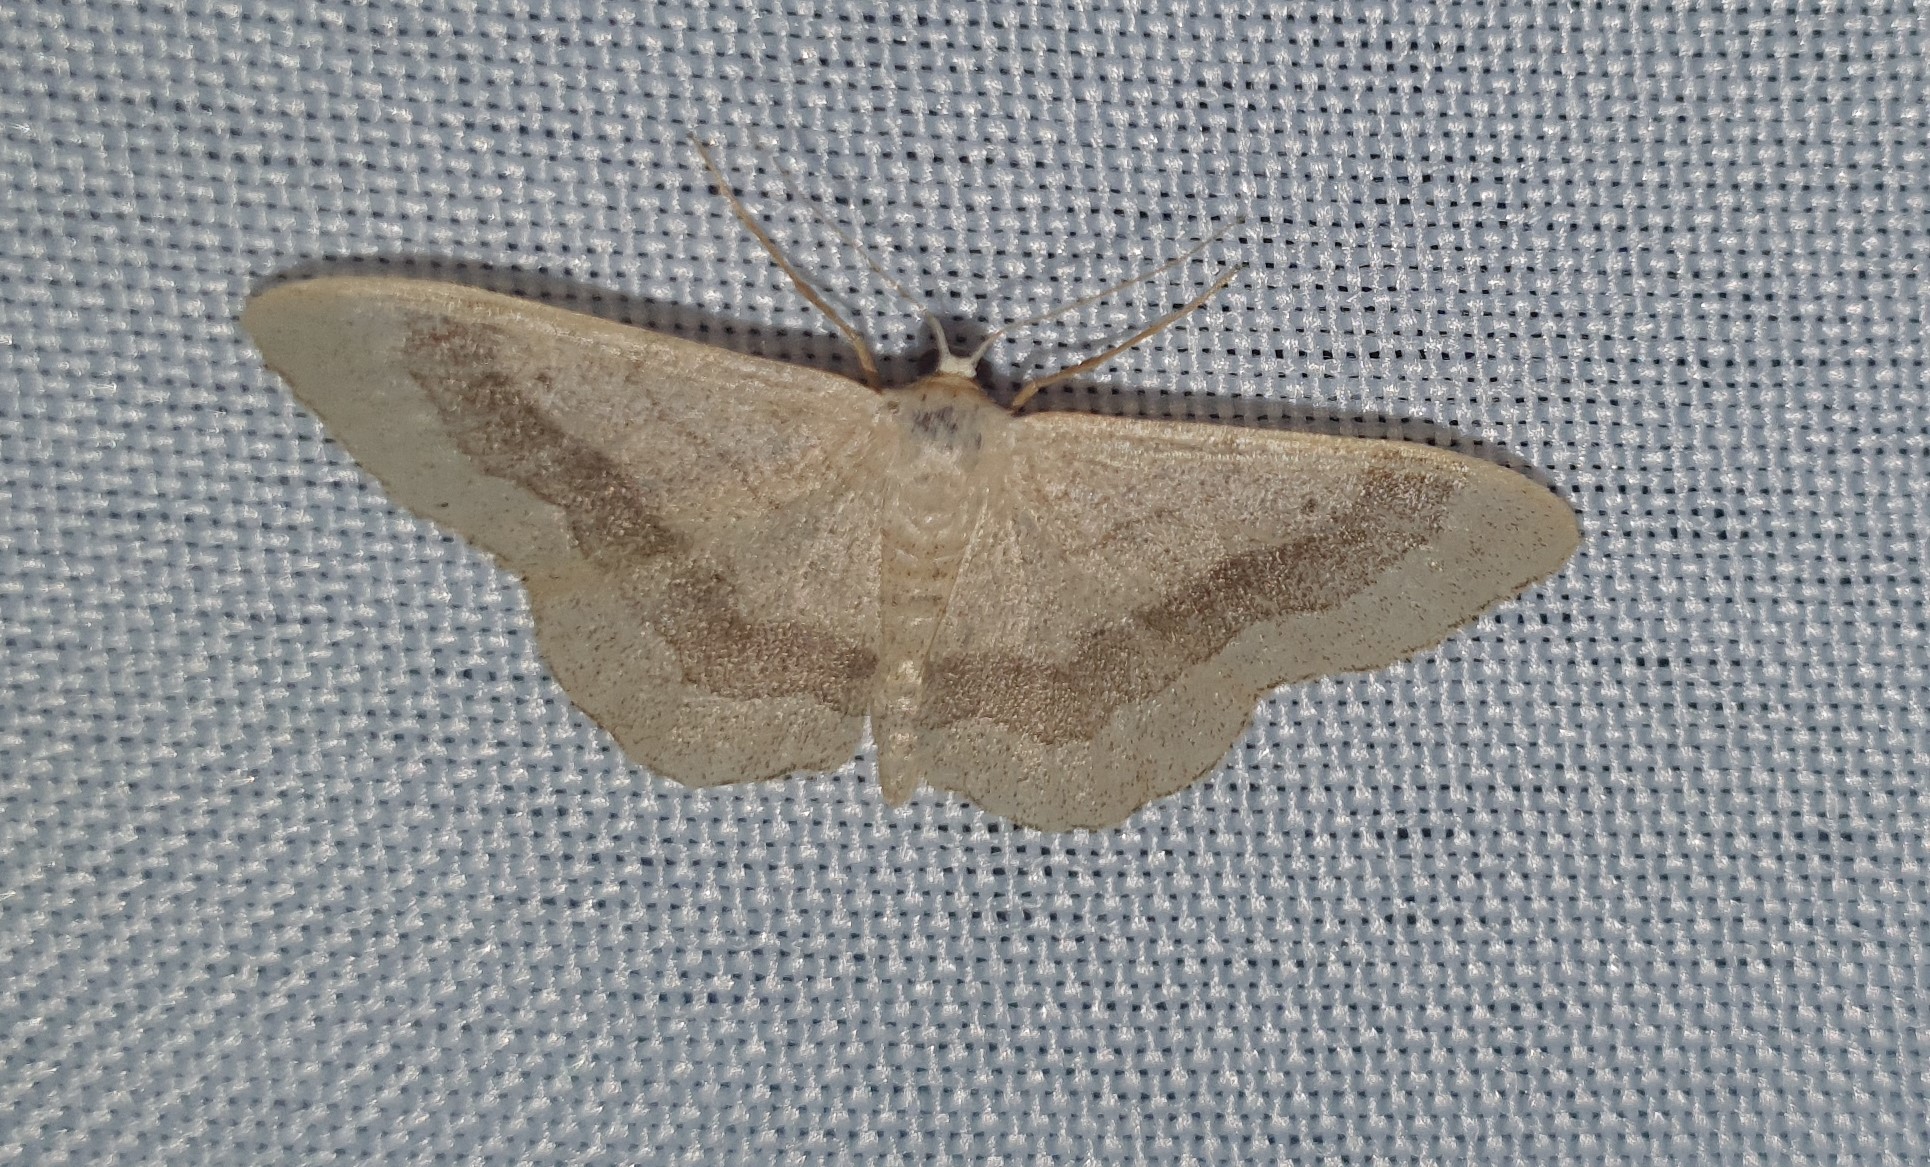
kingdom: Animalia
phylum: Arthropoda
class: Insecta
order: Lepidoptera
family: Geometridae
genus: Idaea
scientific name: Idaea aversata
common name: Riband wave
